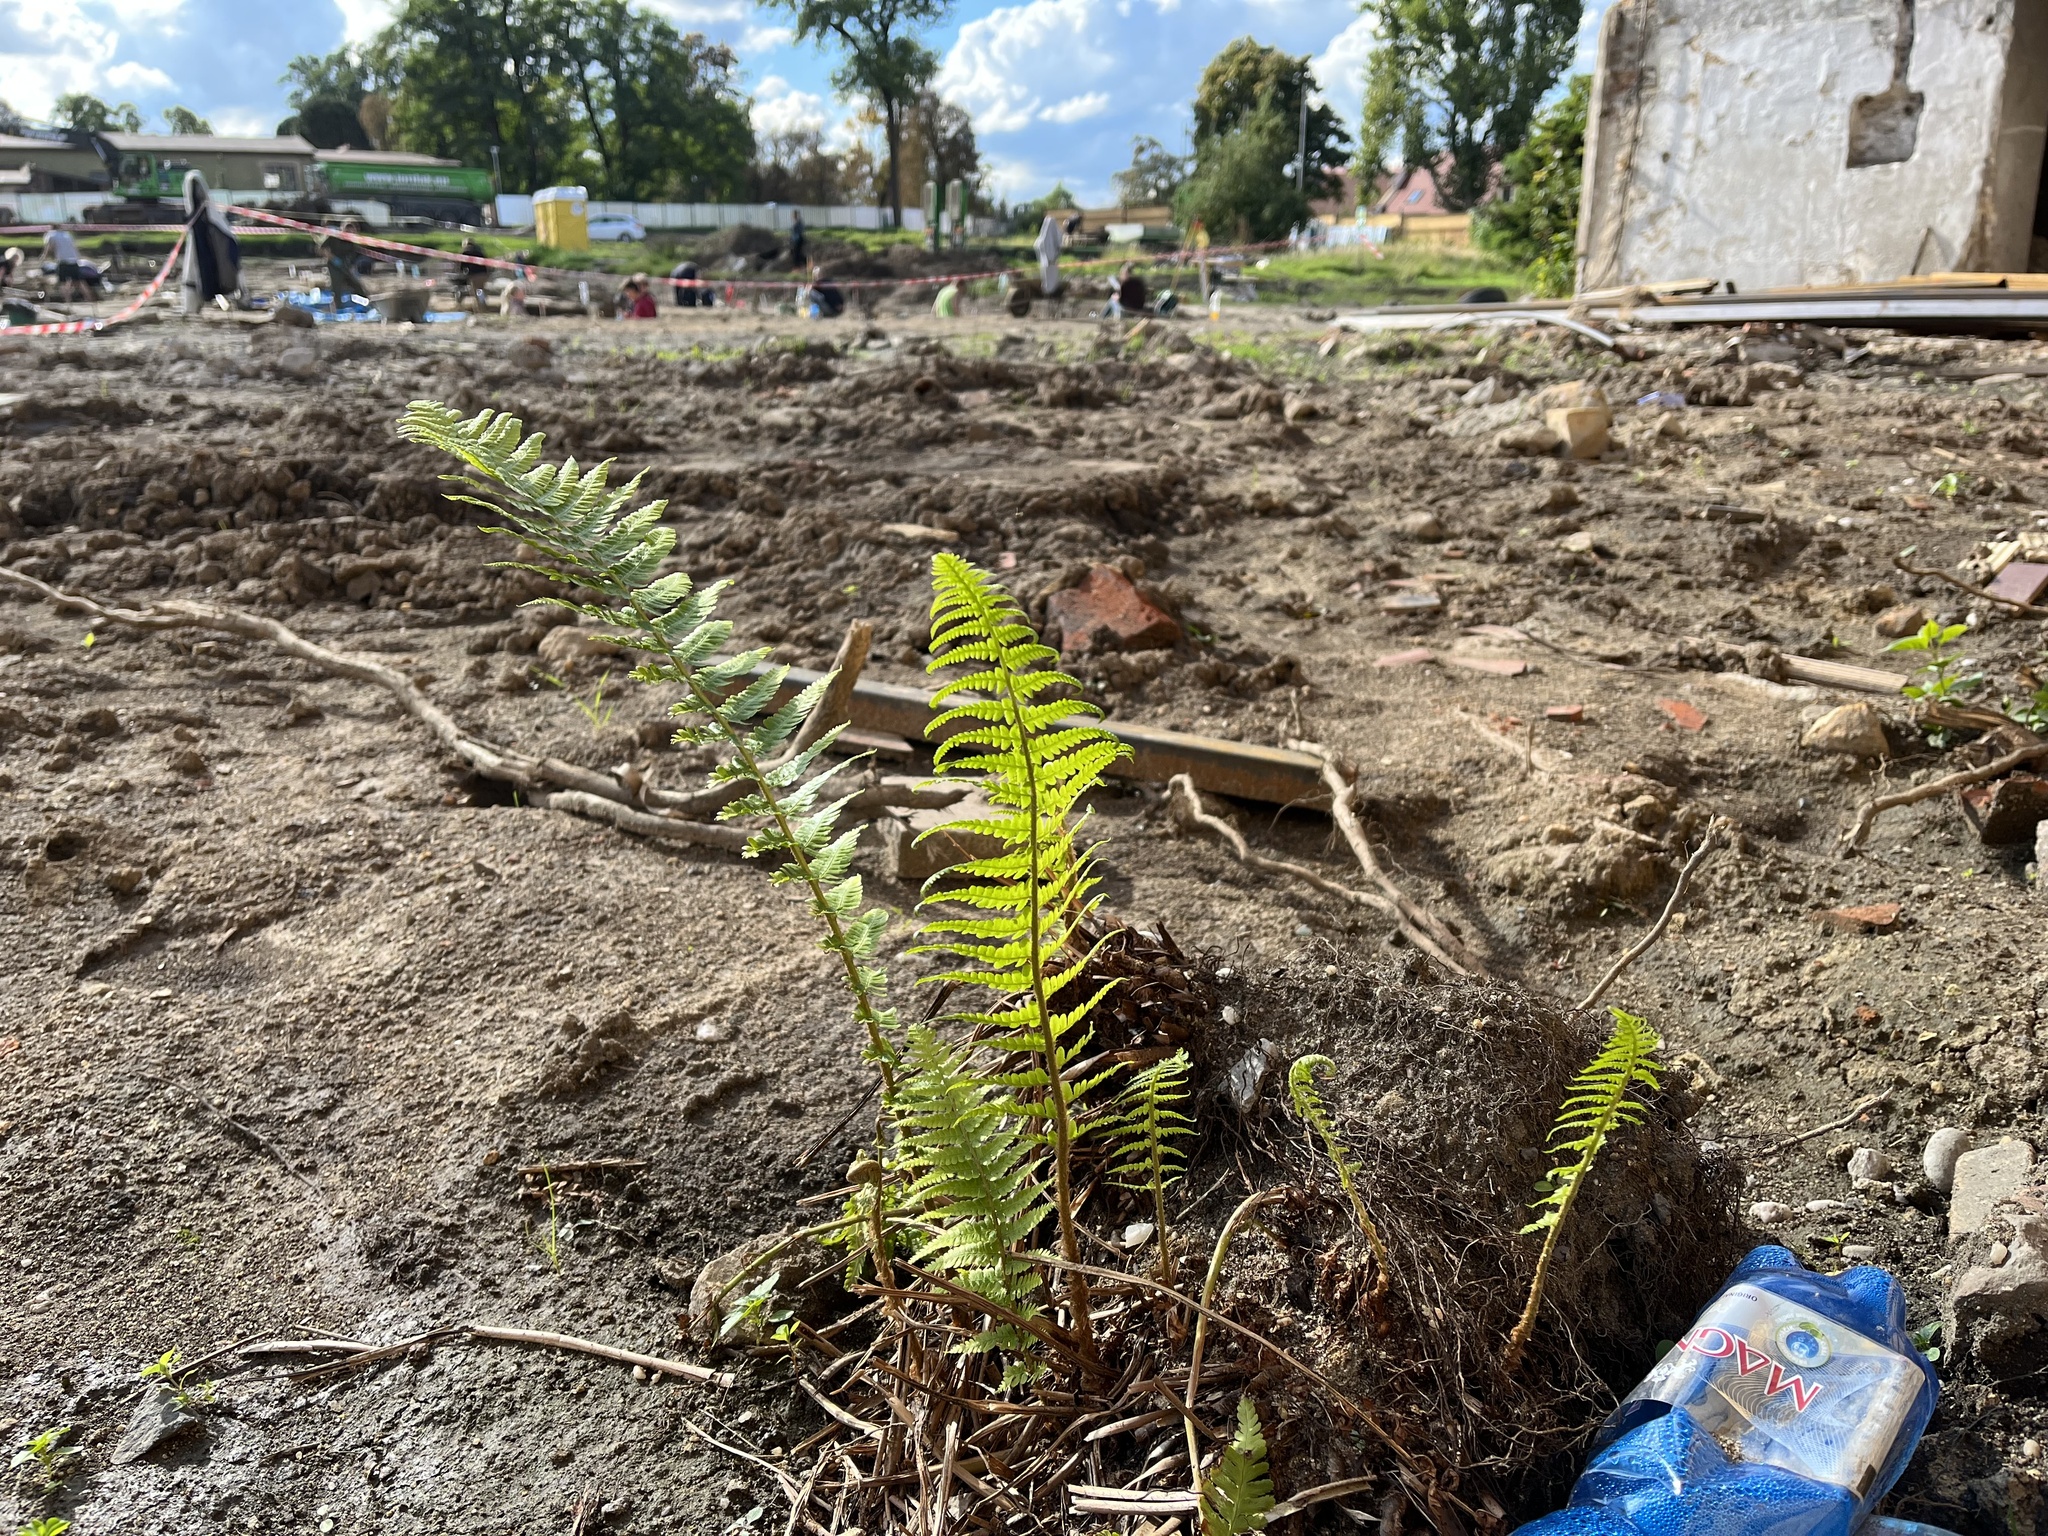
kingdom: Plantae
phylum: Tracheophyta
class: Polypodiopsida
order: Polypodiales
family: Dryopteridaceae
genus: Dryopteris
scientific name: Dryopteris filix-mas
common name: Male fern
